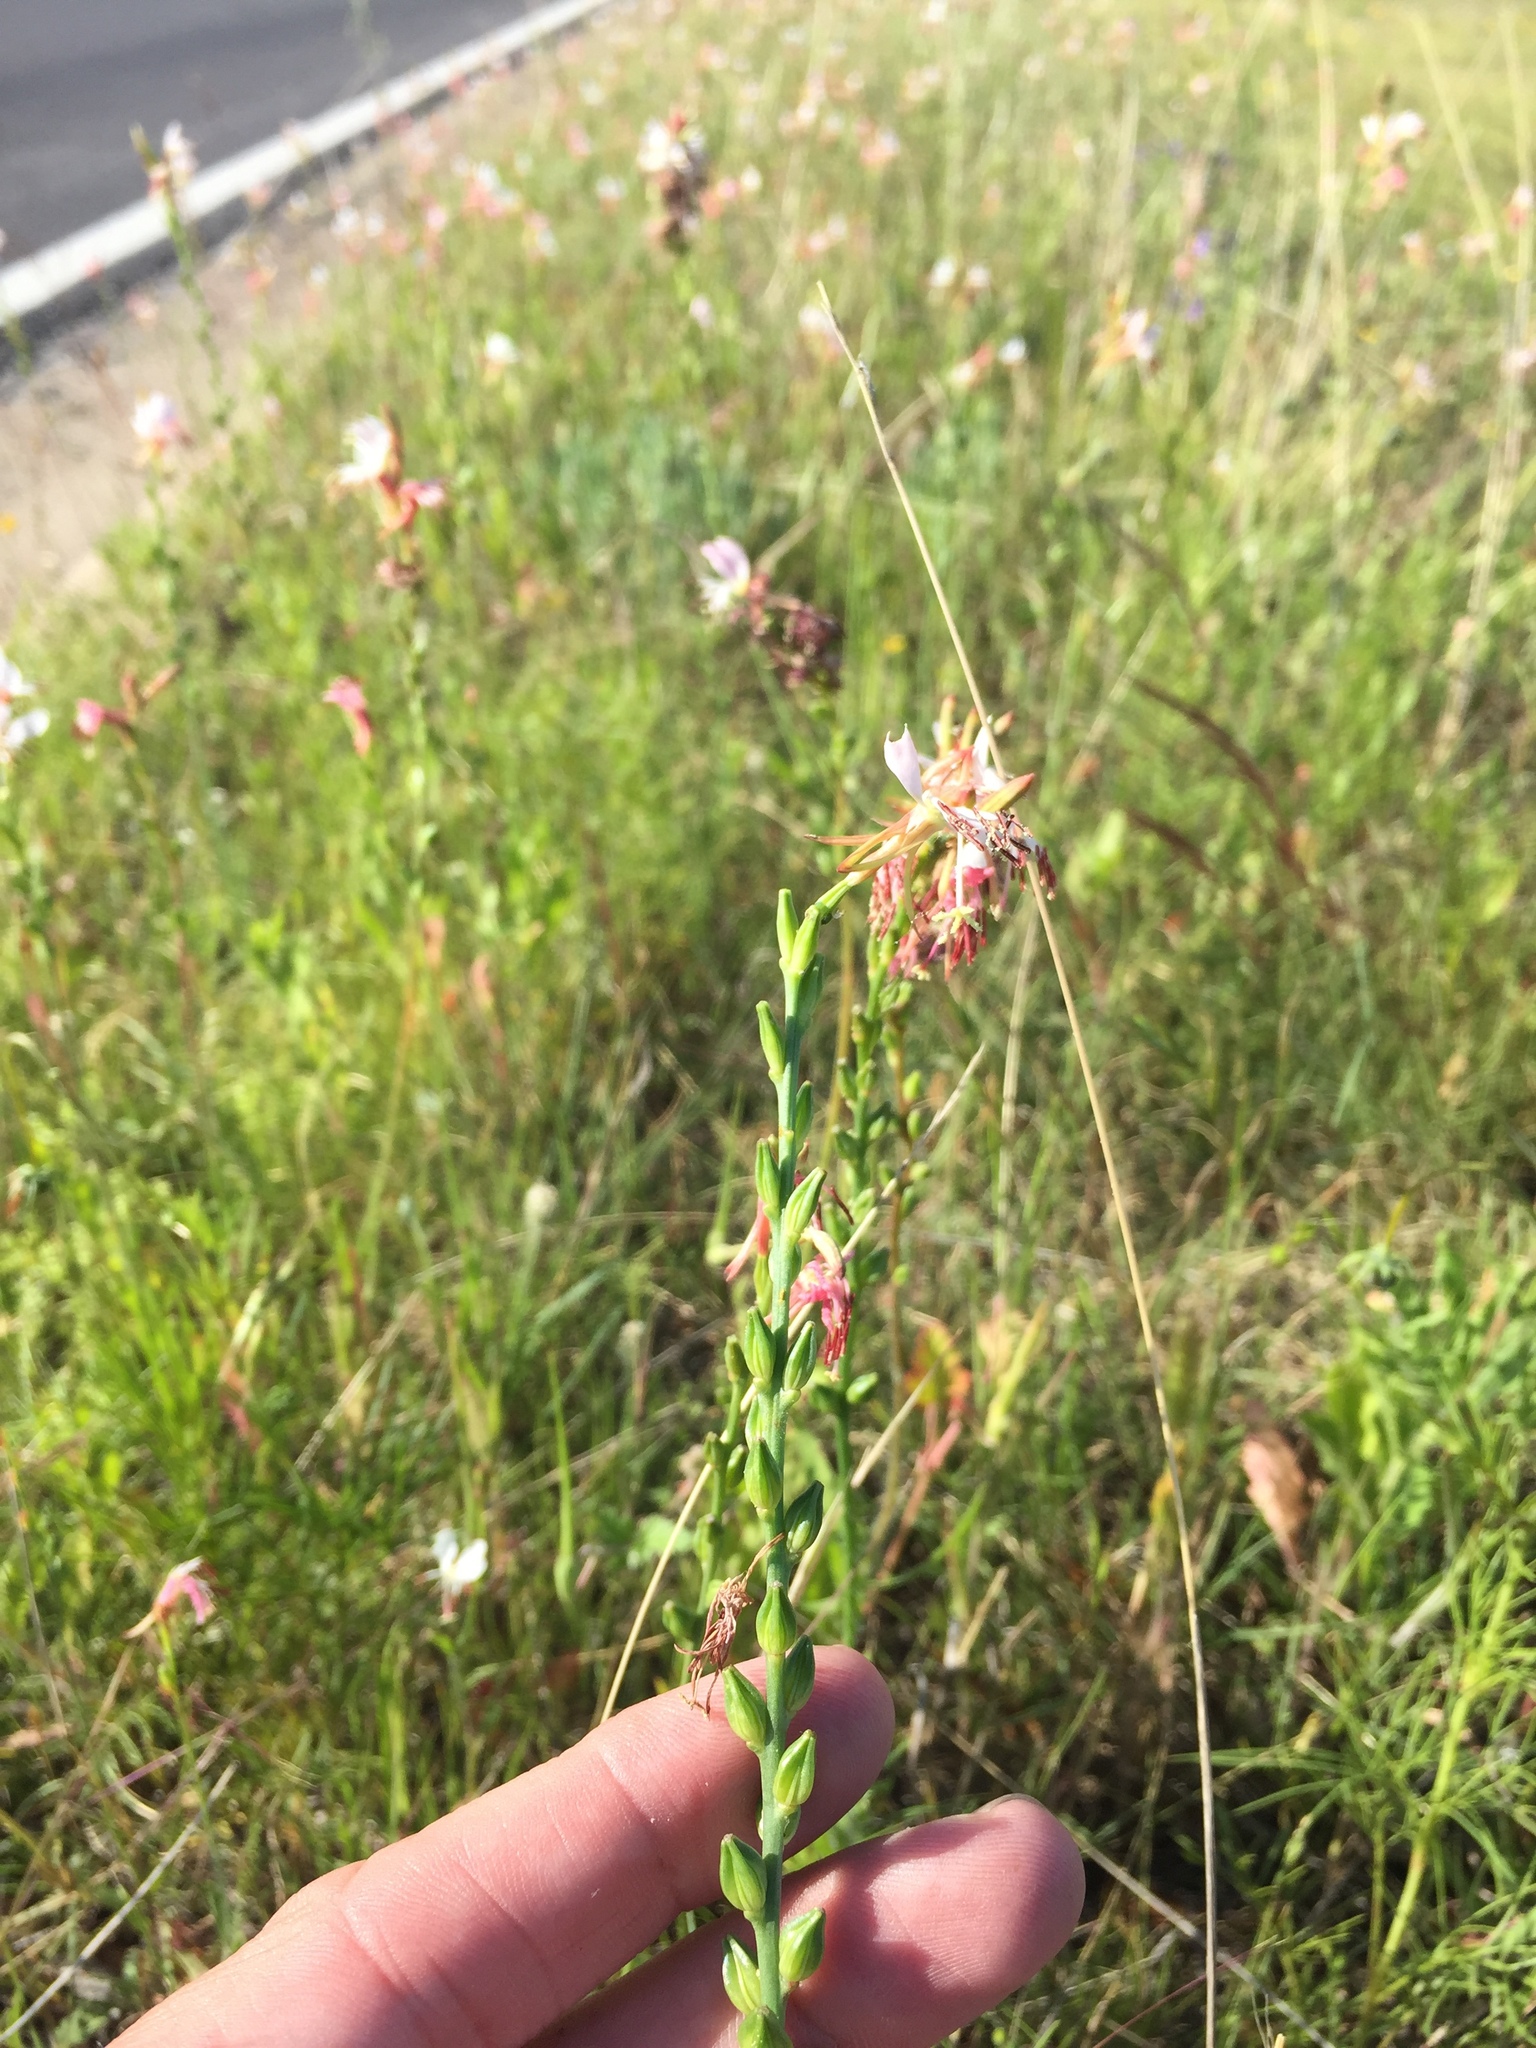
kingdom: Plantae
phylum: Tracheophyta
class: Magnoliopsida
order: Myrtales
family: Onagraceae
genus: Oenothera
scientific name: Oenothera suffulta
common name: Kisses
